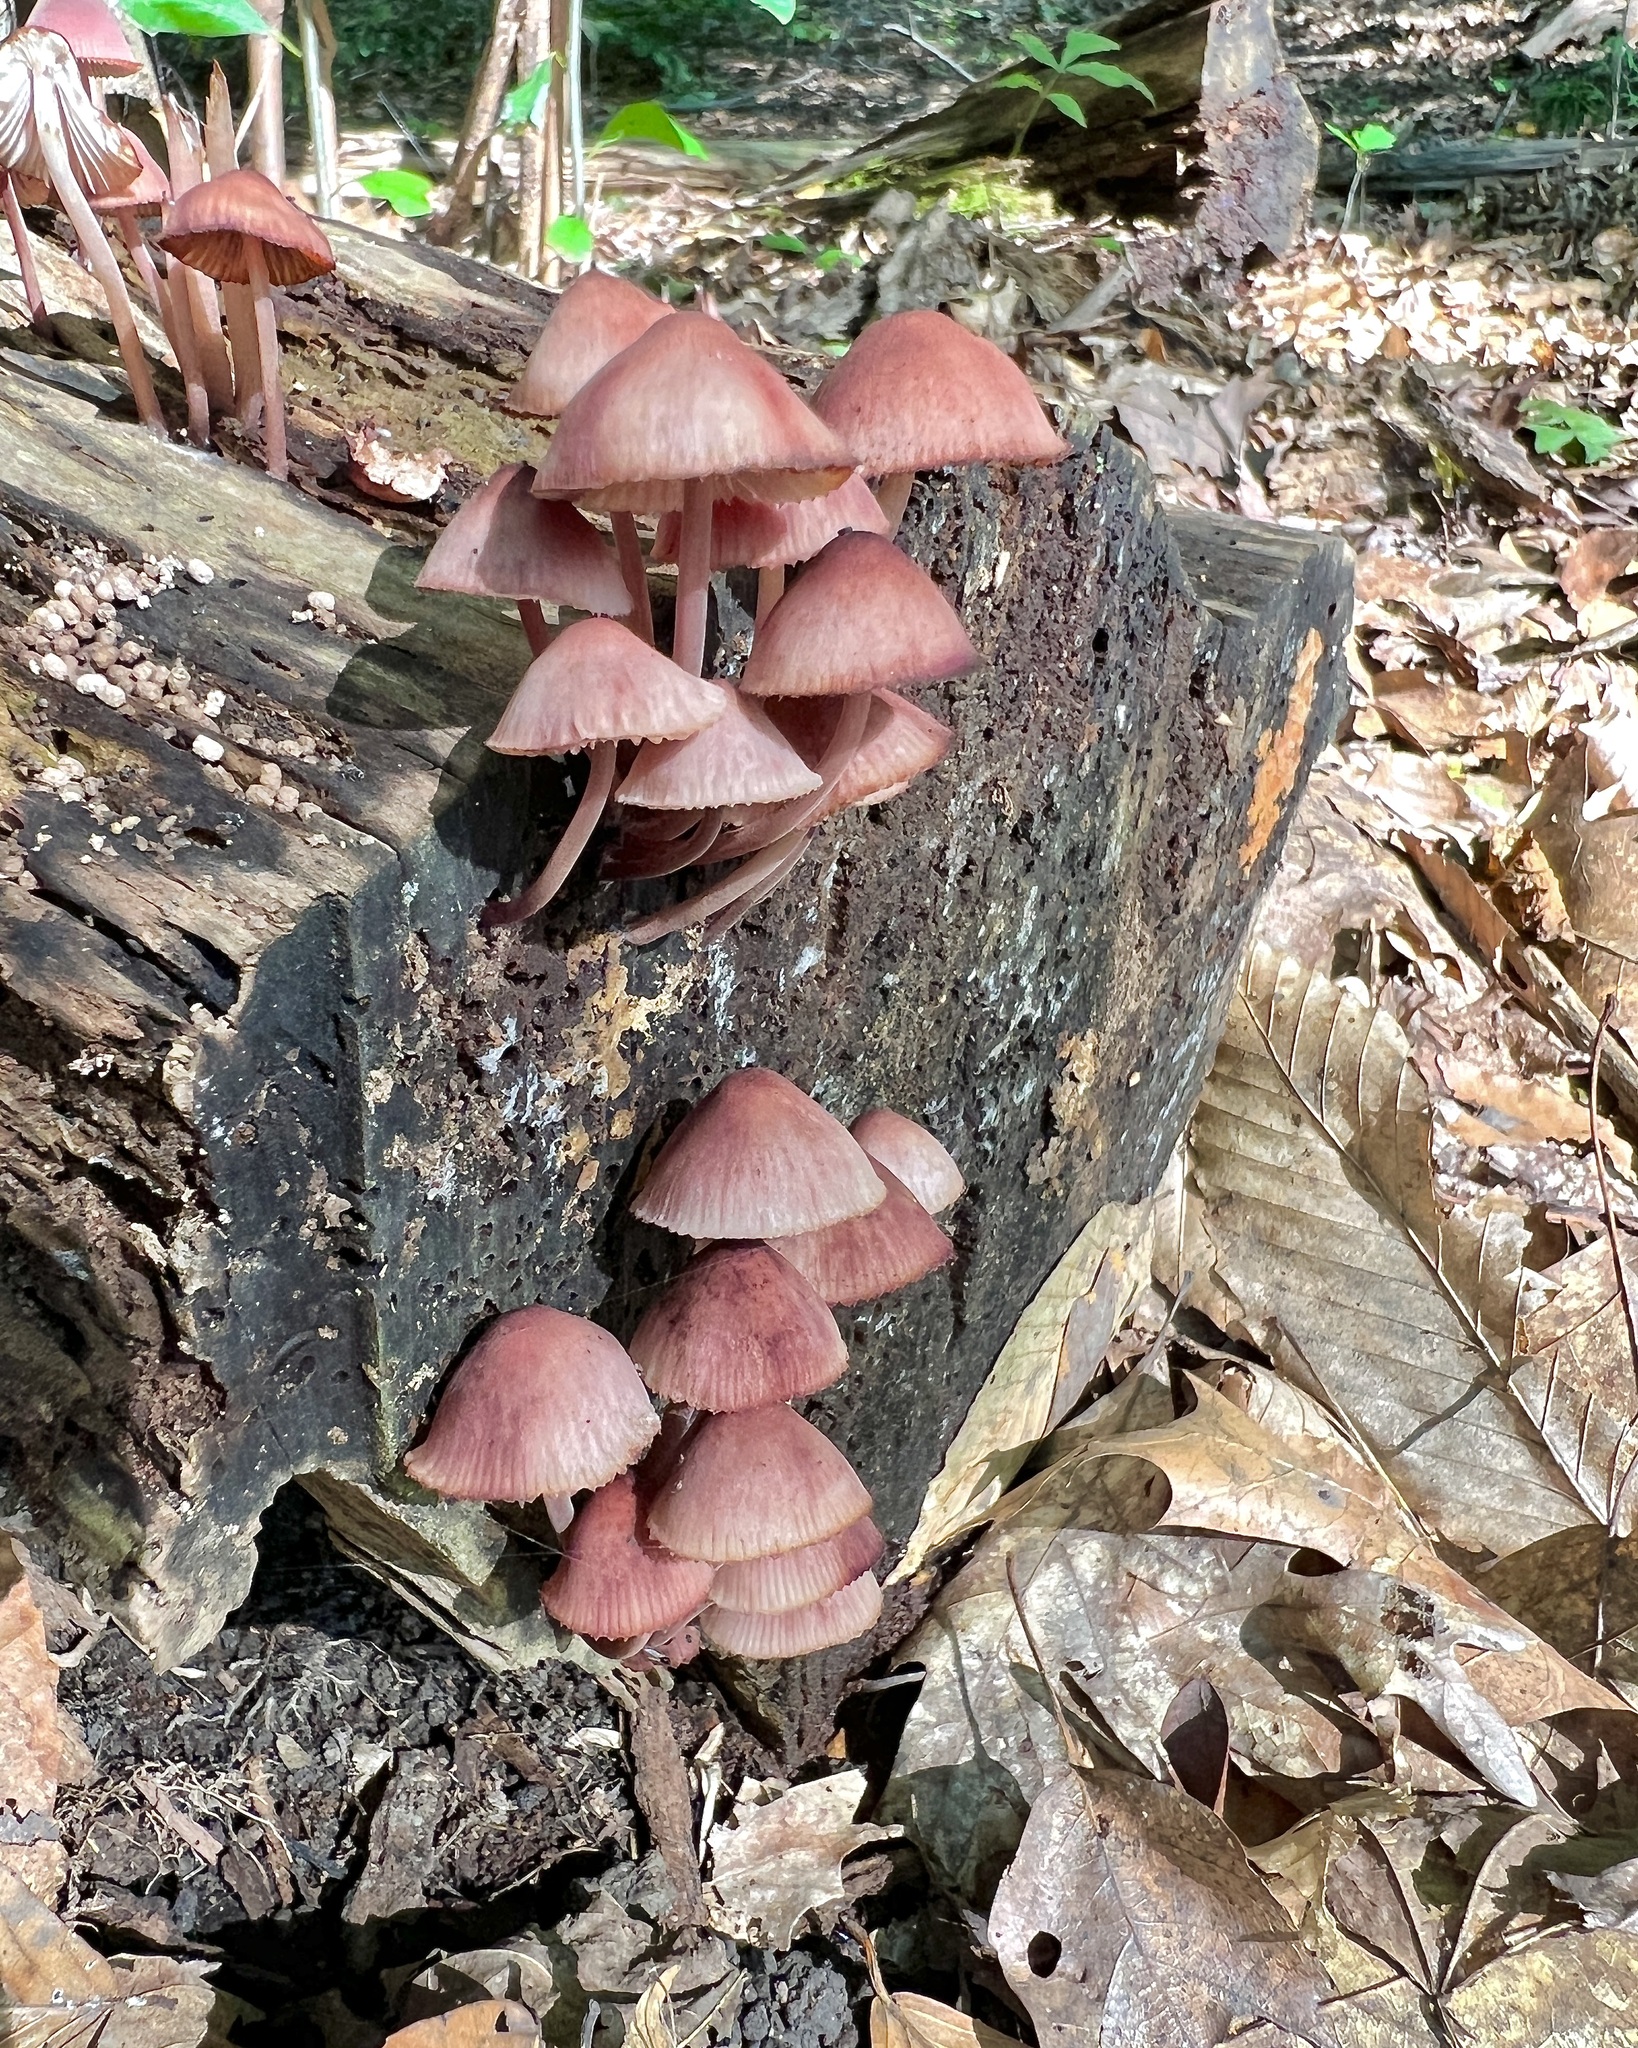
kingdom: Fungi
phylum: Basidiomycota
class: Agaricomycetes
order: Agaricales
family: Mycenaceae
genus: Mycena
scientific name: Mycena haematopus
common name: Burgundydrop bonnet
